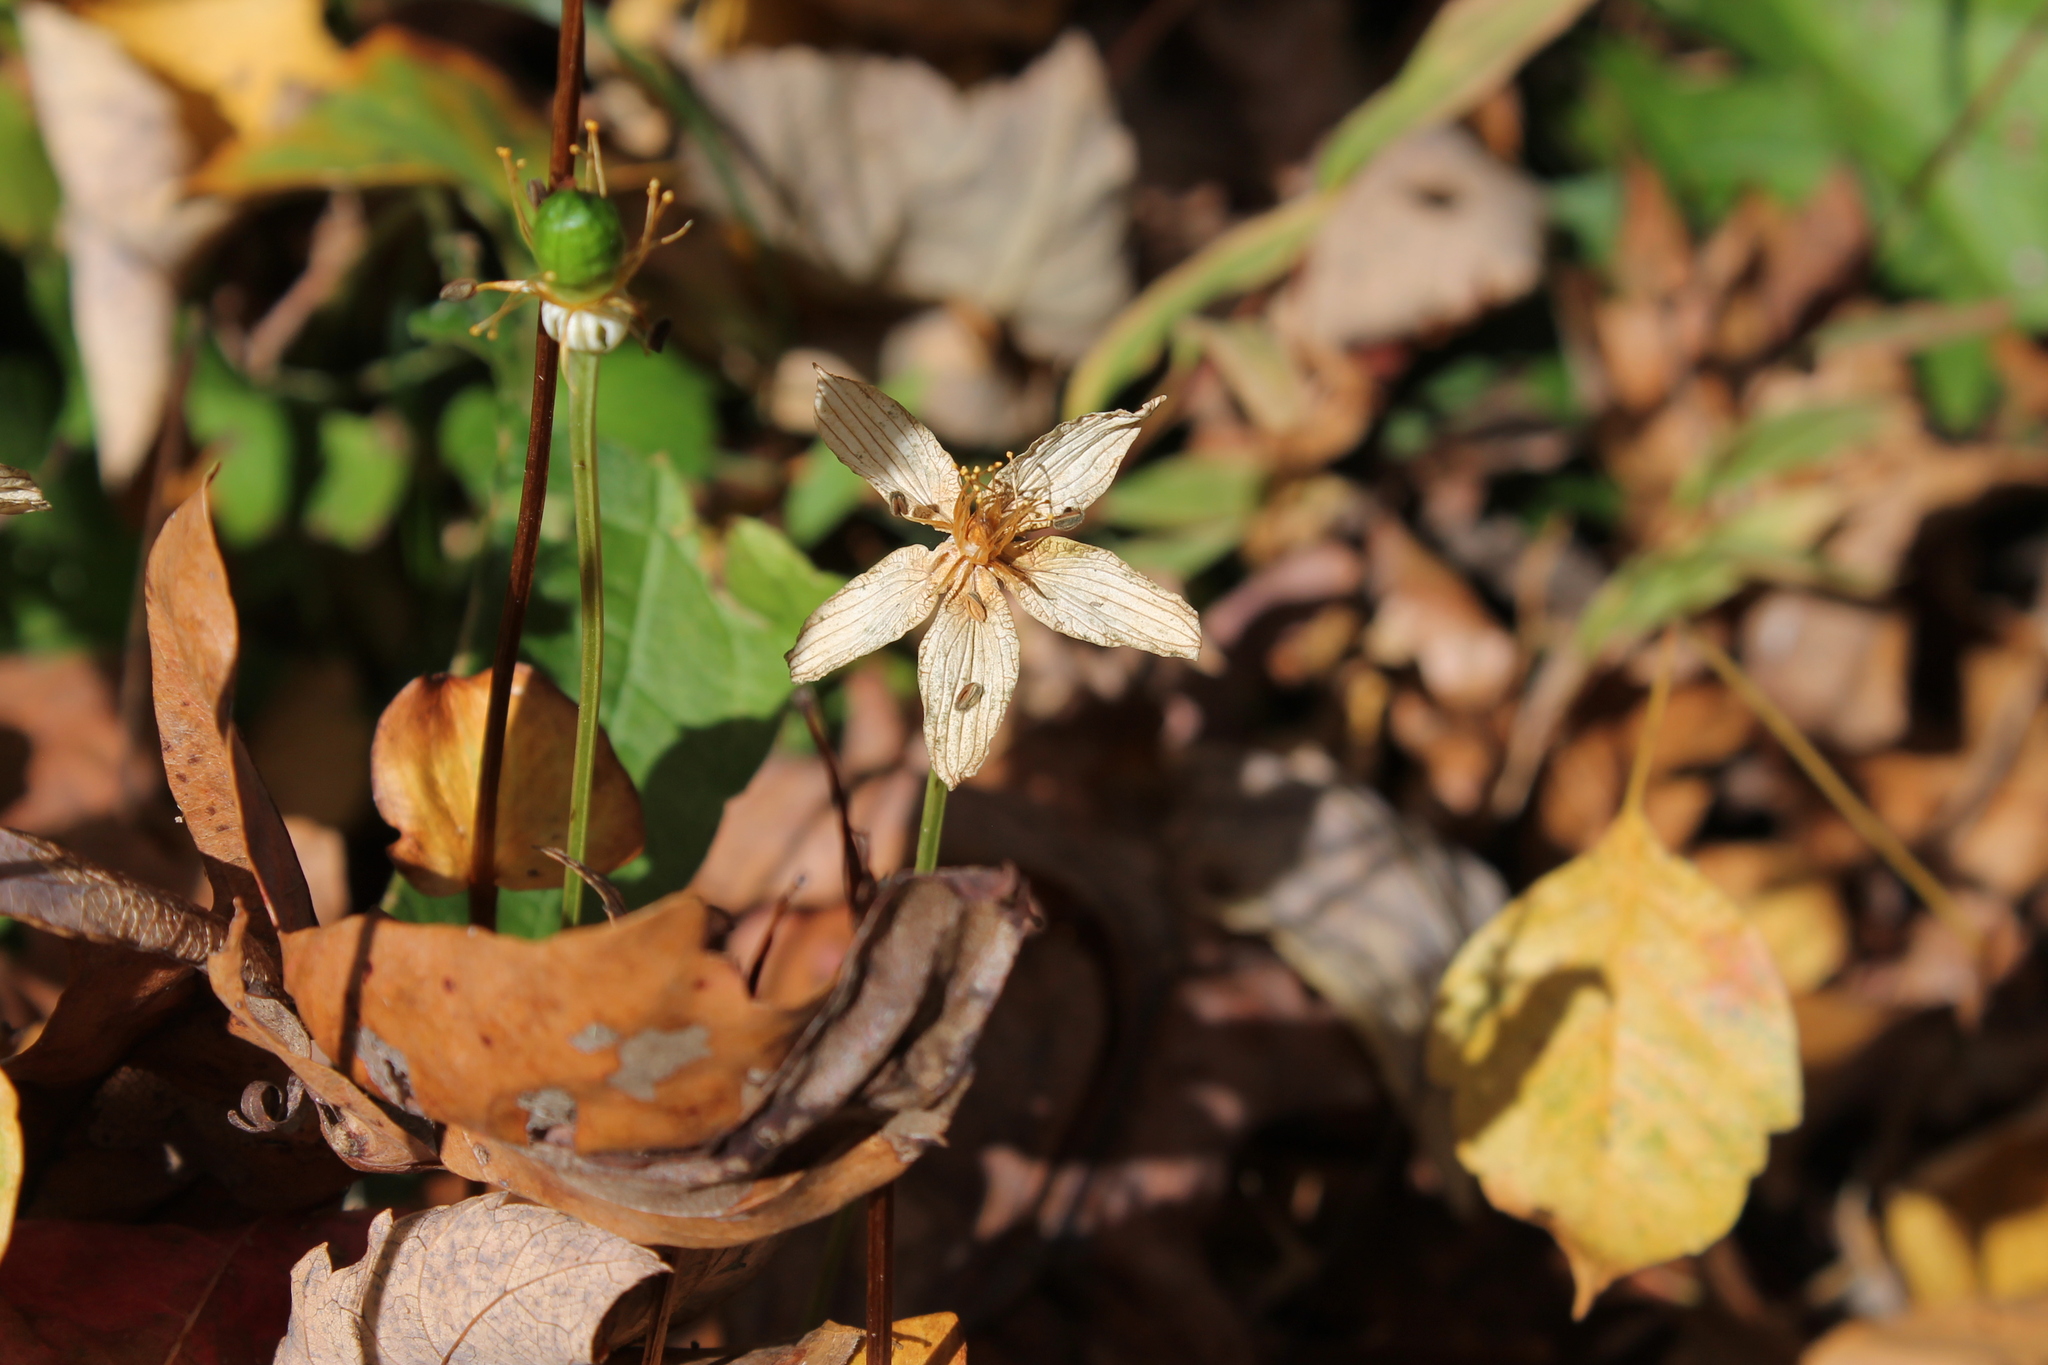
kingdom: Plantae
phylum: Tracheophyta
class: Magnoliopsida
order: Celastrales
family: Parnassiaceae
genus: Parnassia
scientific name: Parnassia grandifolia
